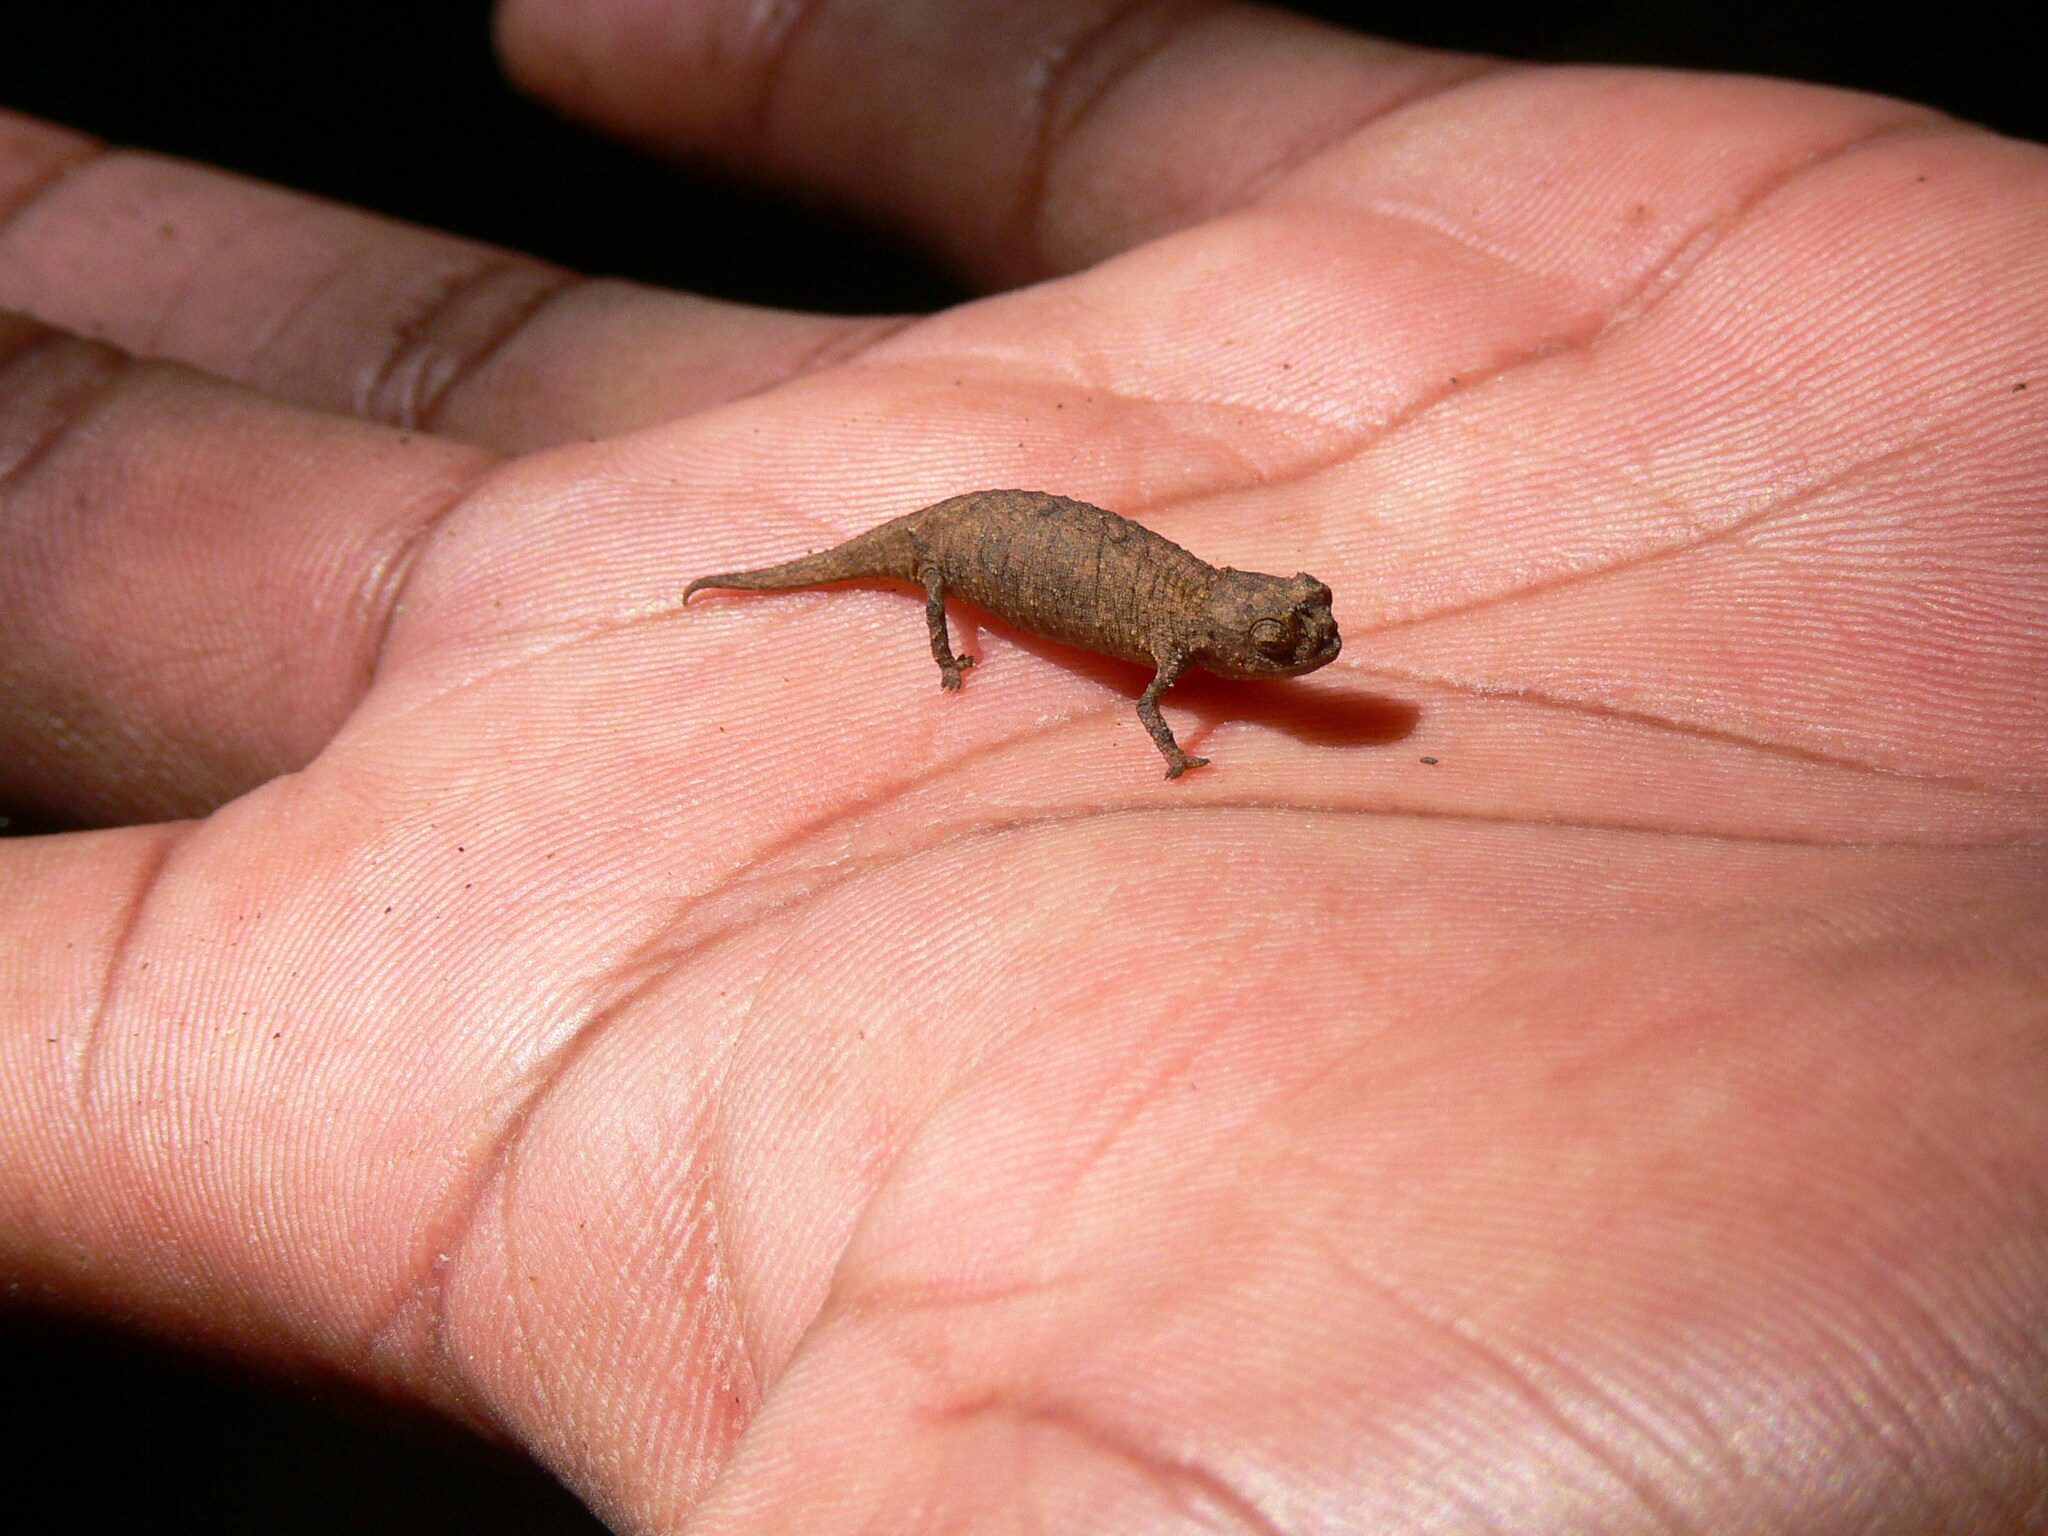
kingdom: Animalia
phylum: Chordata
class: Squamata
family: Chamaeleonidae
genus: Brookesia
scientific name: Brookesia tuberculata
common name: Mount d'ambre leaf chameleon
